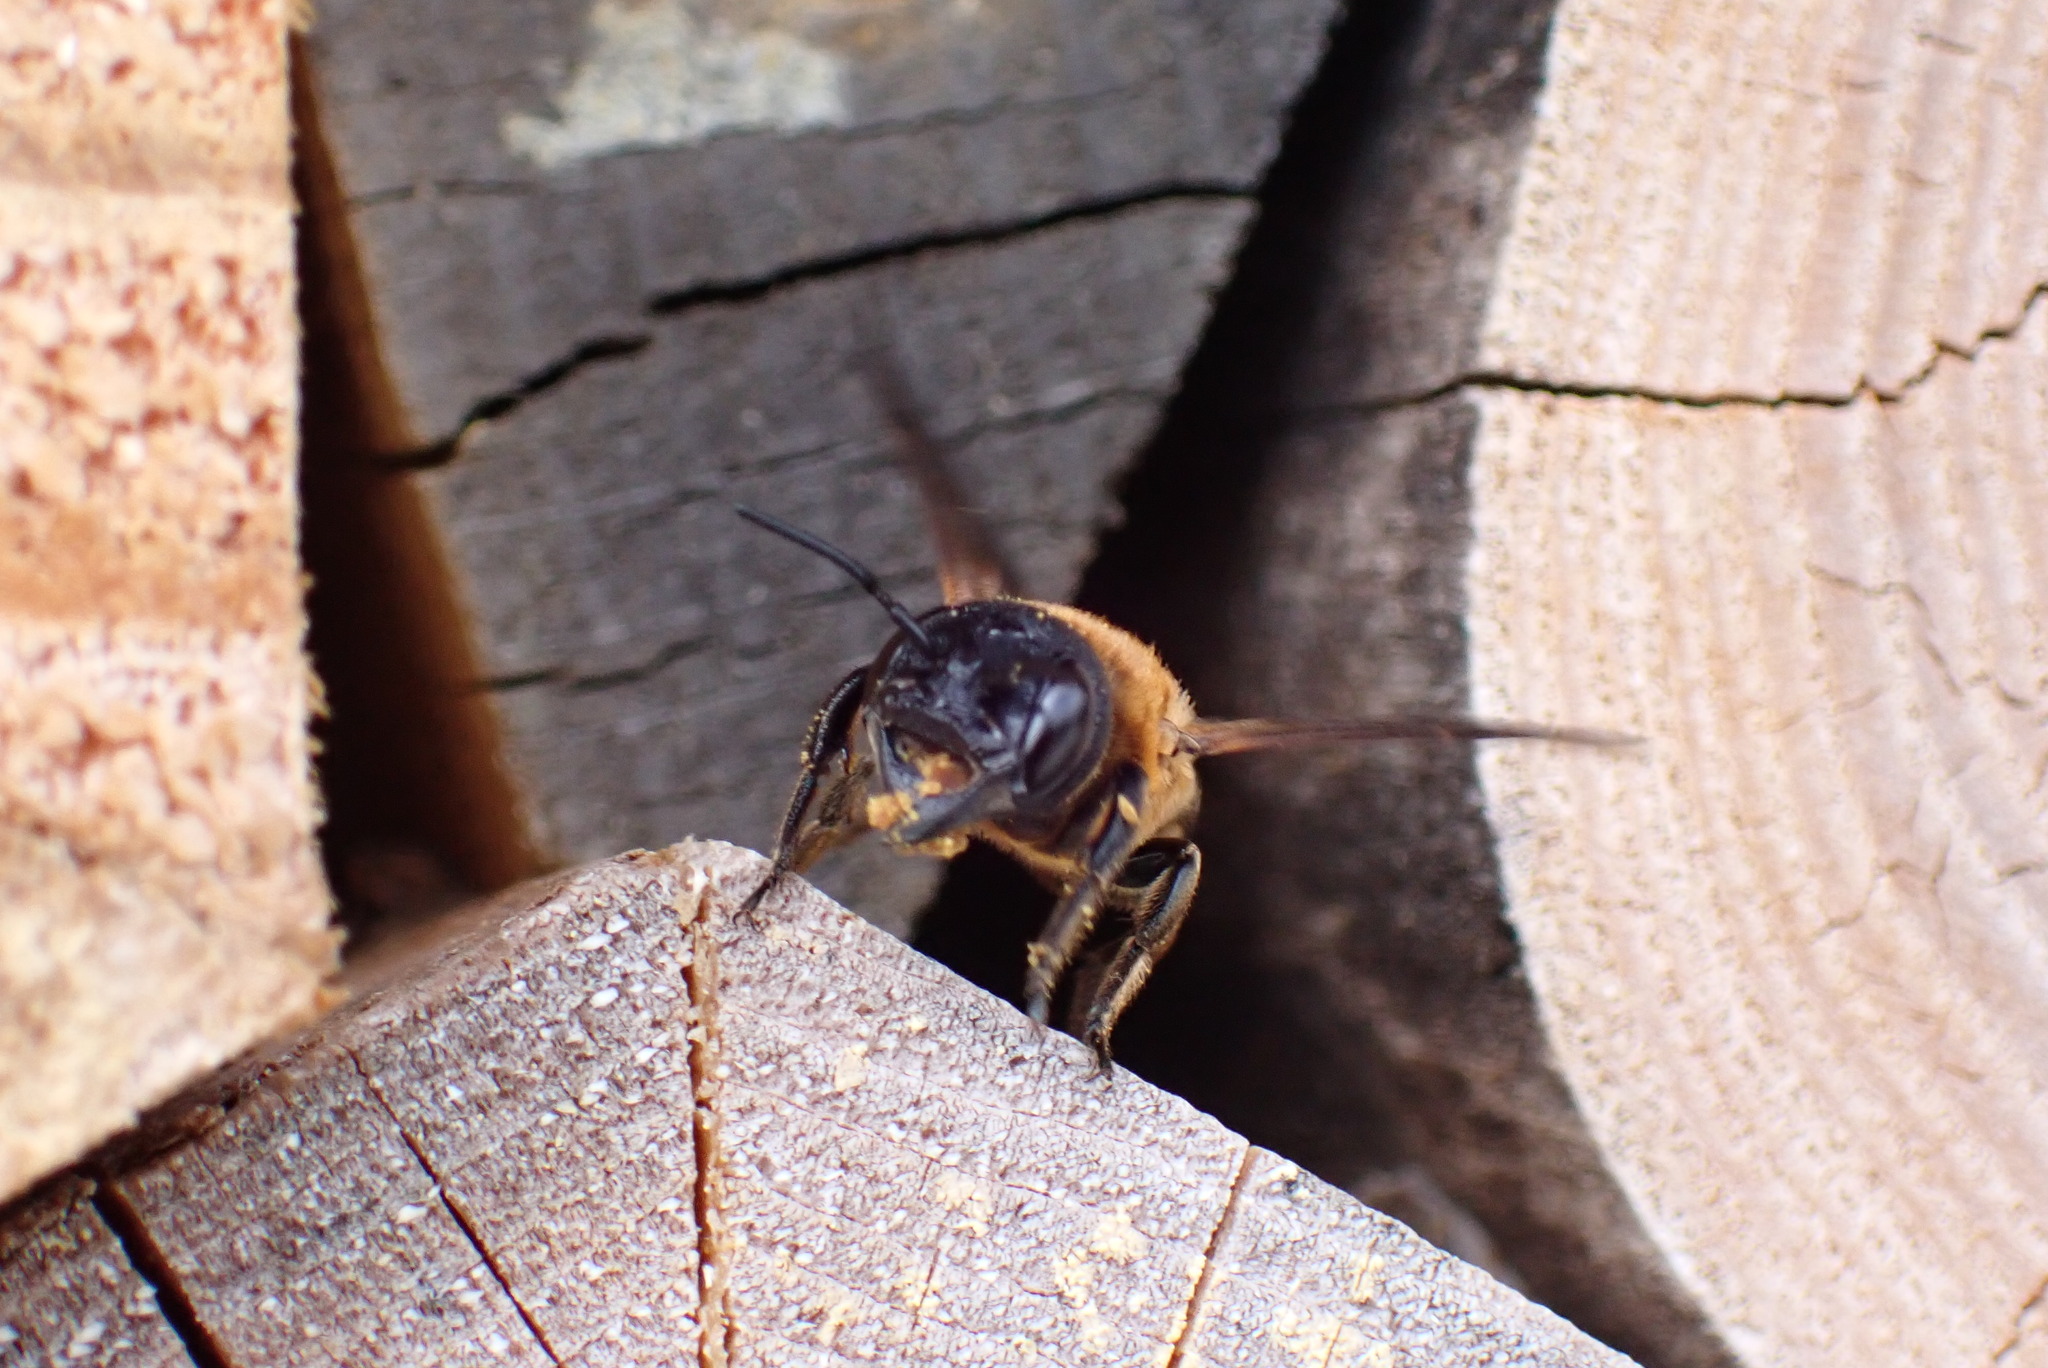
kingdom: Animalia
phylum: Arthropoda
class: Insecta
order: Hymenoptera
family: Megachilidae
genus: Megachile
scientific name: Megachile sculpturalis
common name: Sculptured resin bee
